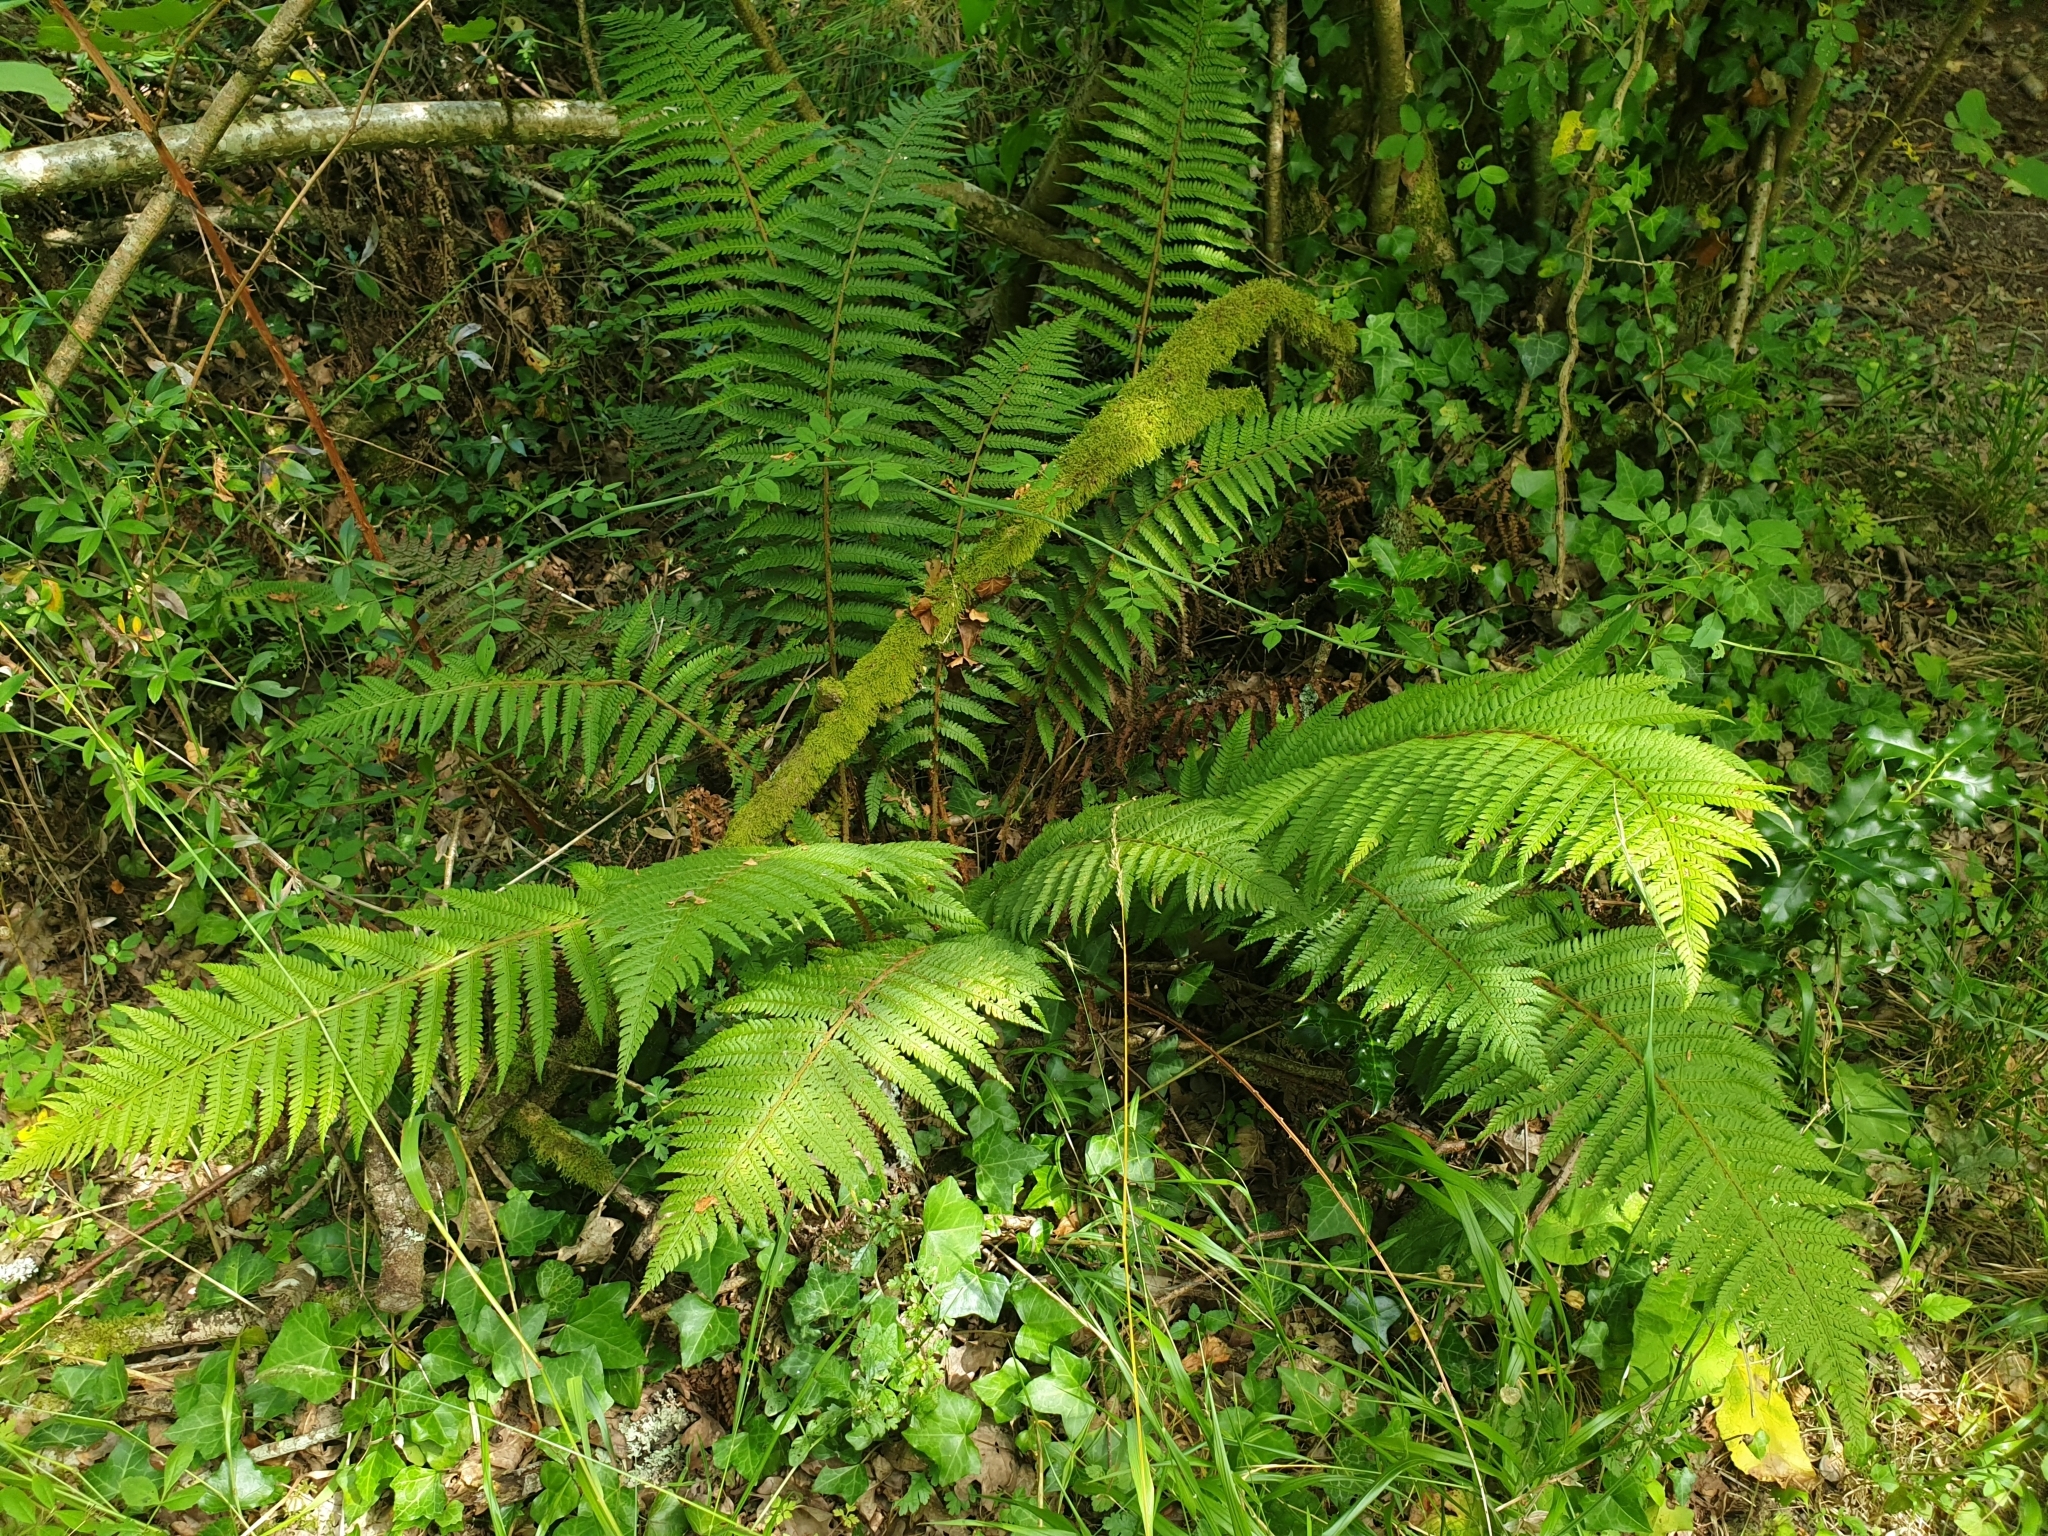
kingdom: Plantae
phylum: Tracheophyta
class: Polypodiopsida
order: Polypodiales
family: Dryopteridaceae
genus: Polystichum
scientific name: Polystichum setiferum
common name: Soft shield-fern
